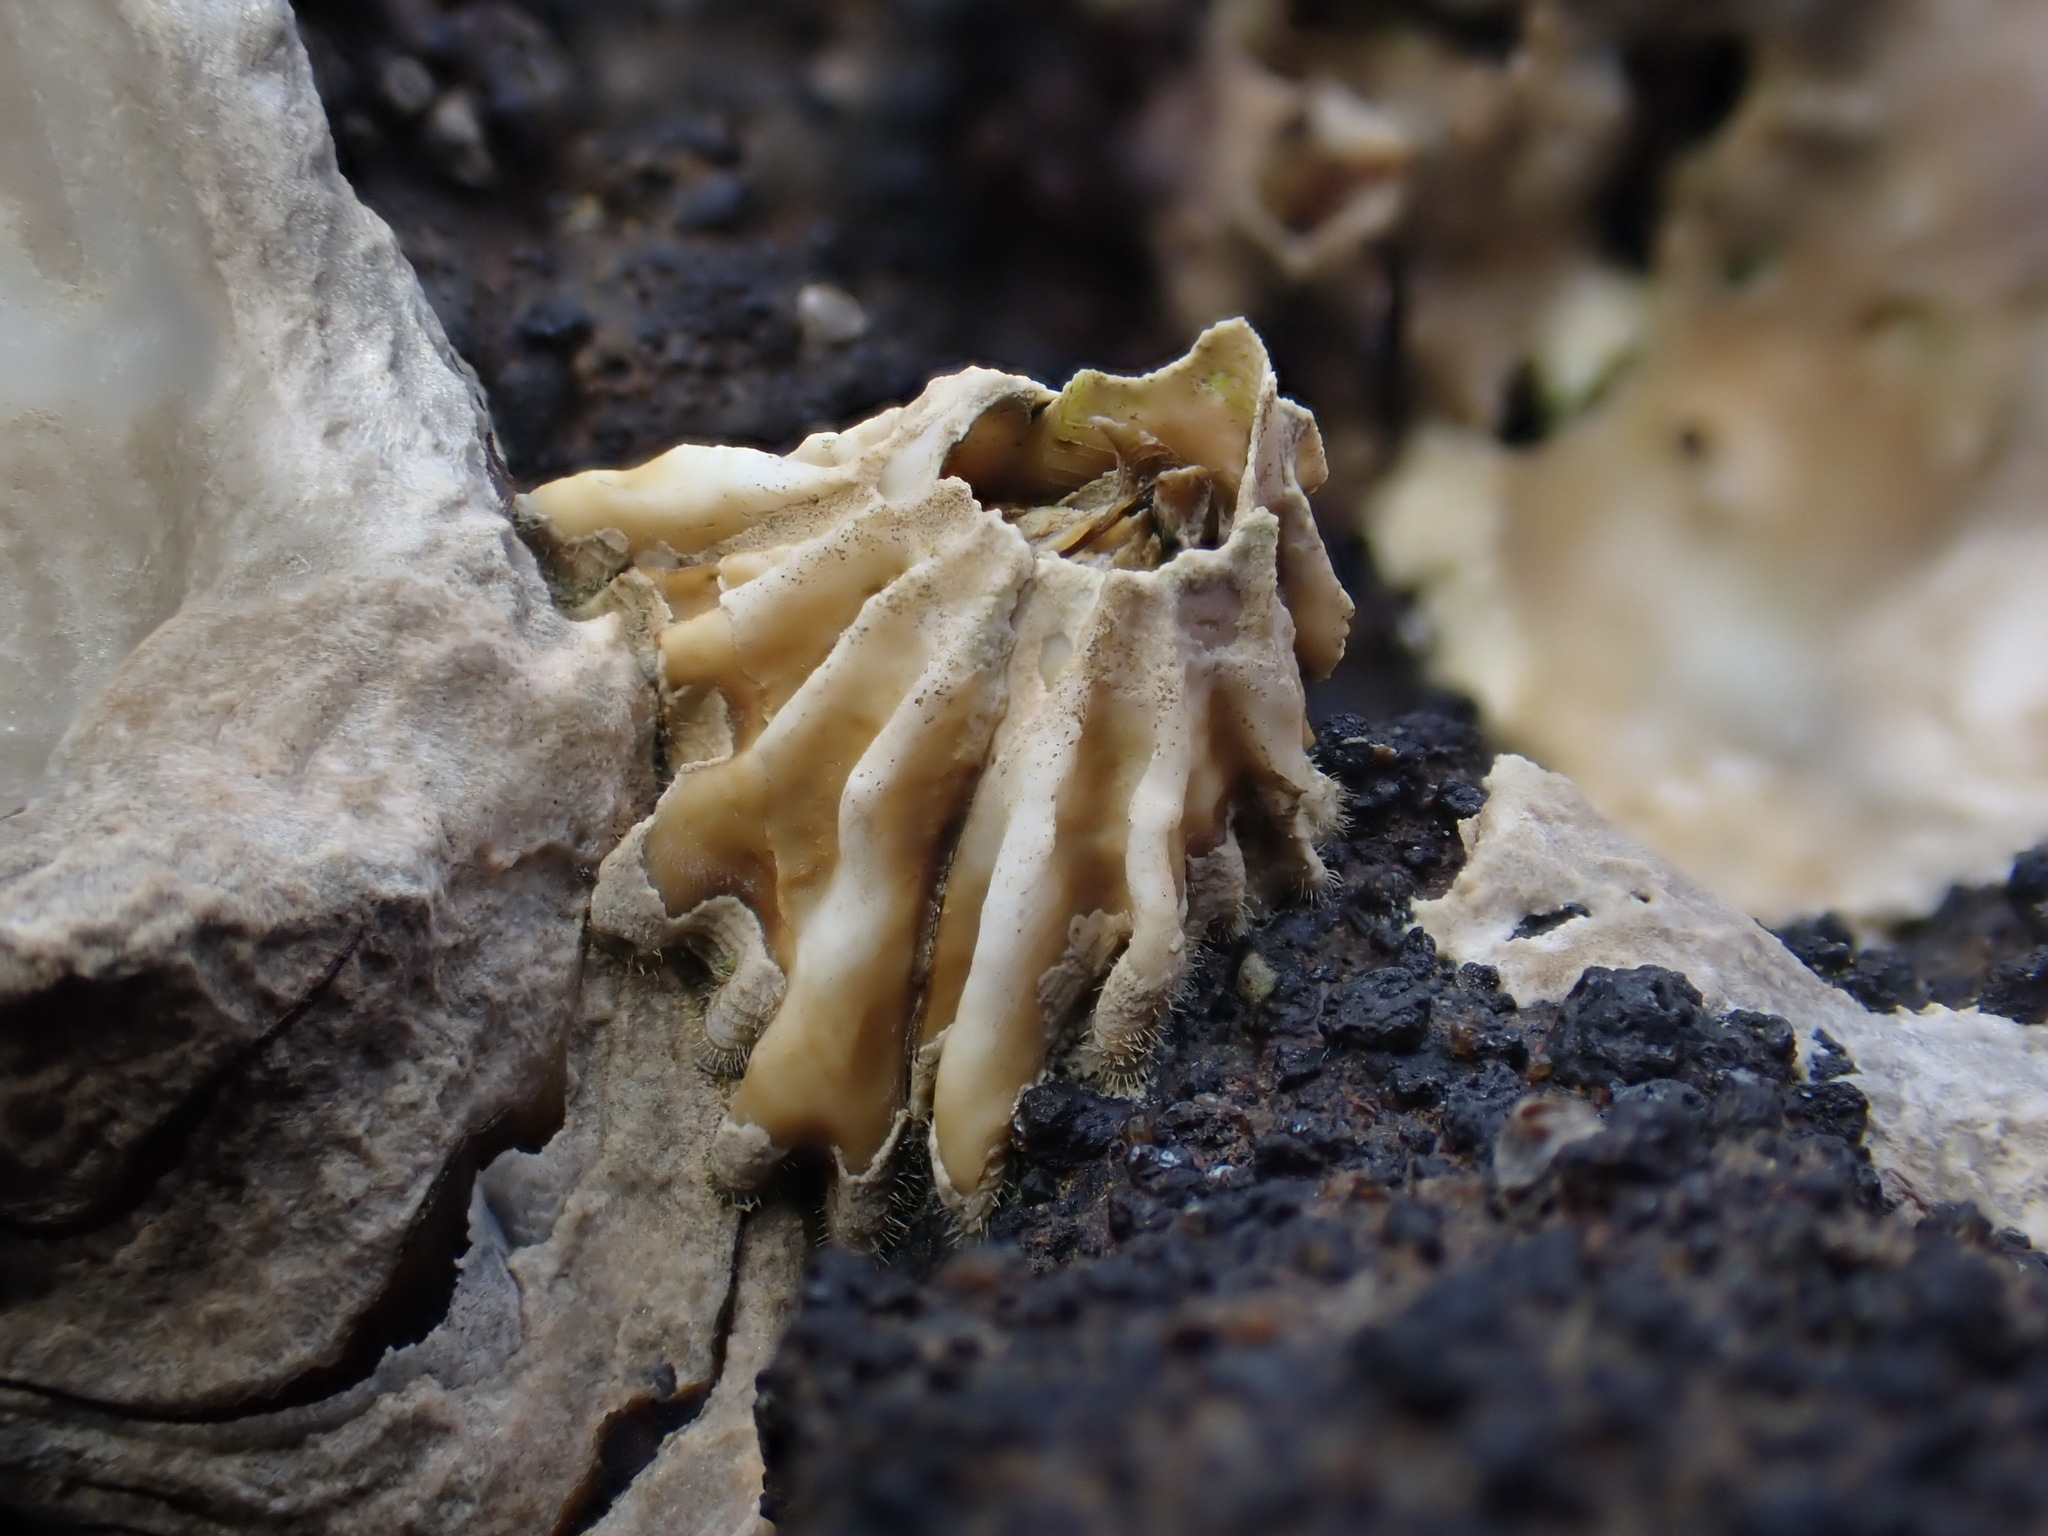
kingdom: Animalia
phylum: Arthropoda
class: Maxillopoda
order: Sessilia
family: Tetraclitidae
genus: Epopella
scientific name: Epopella plicata
